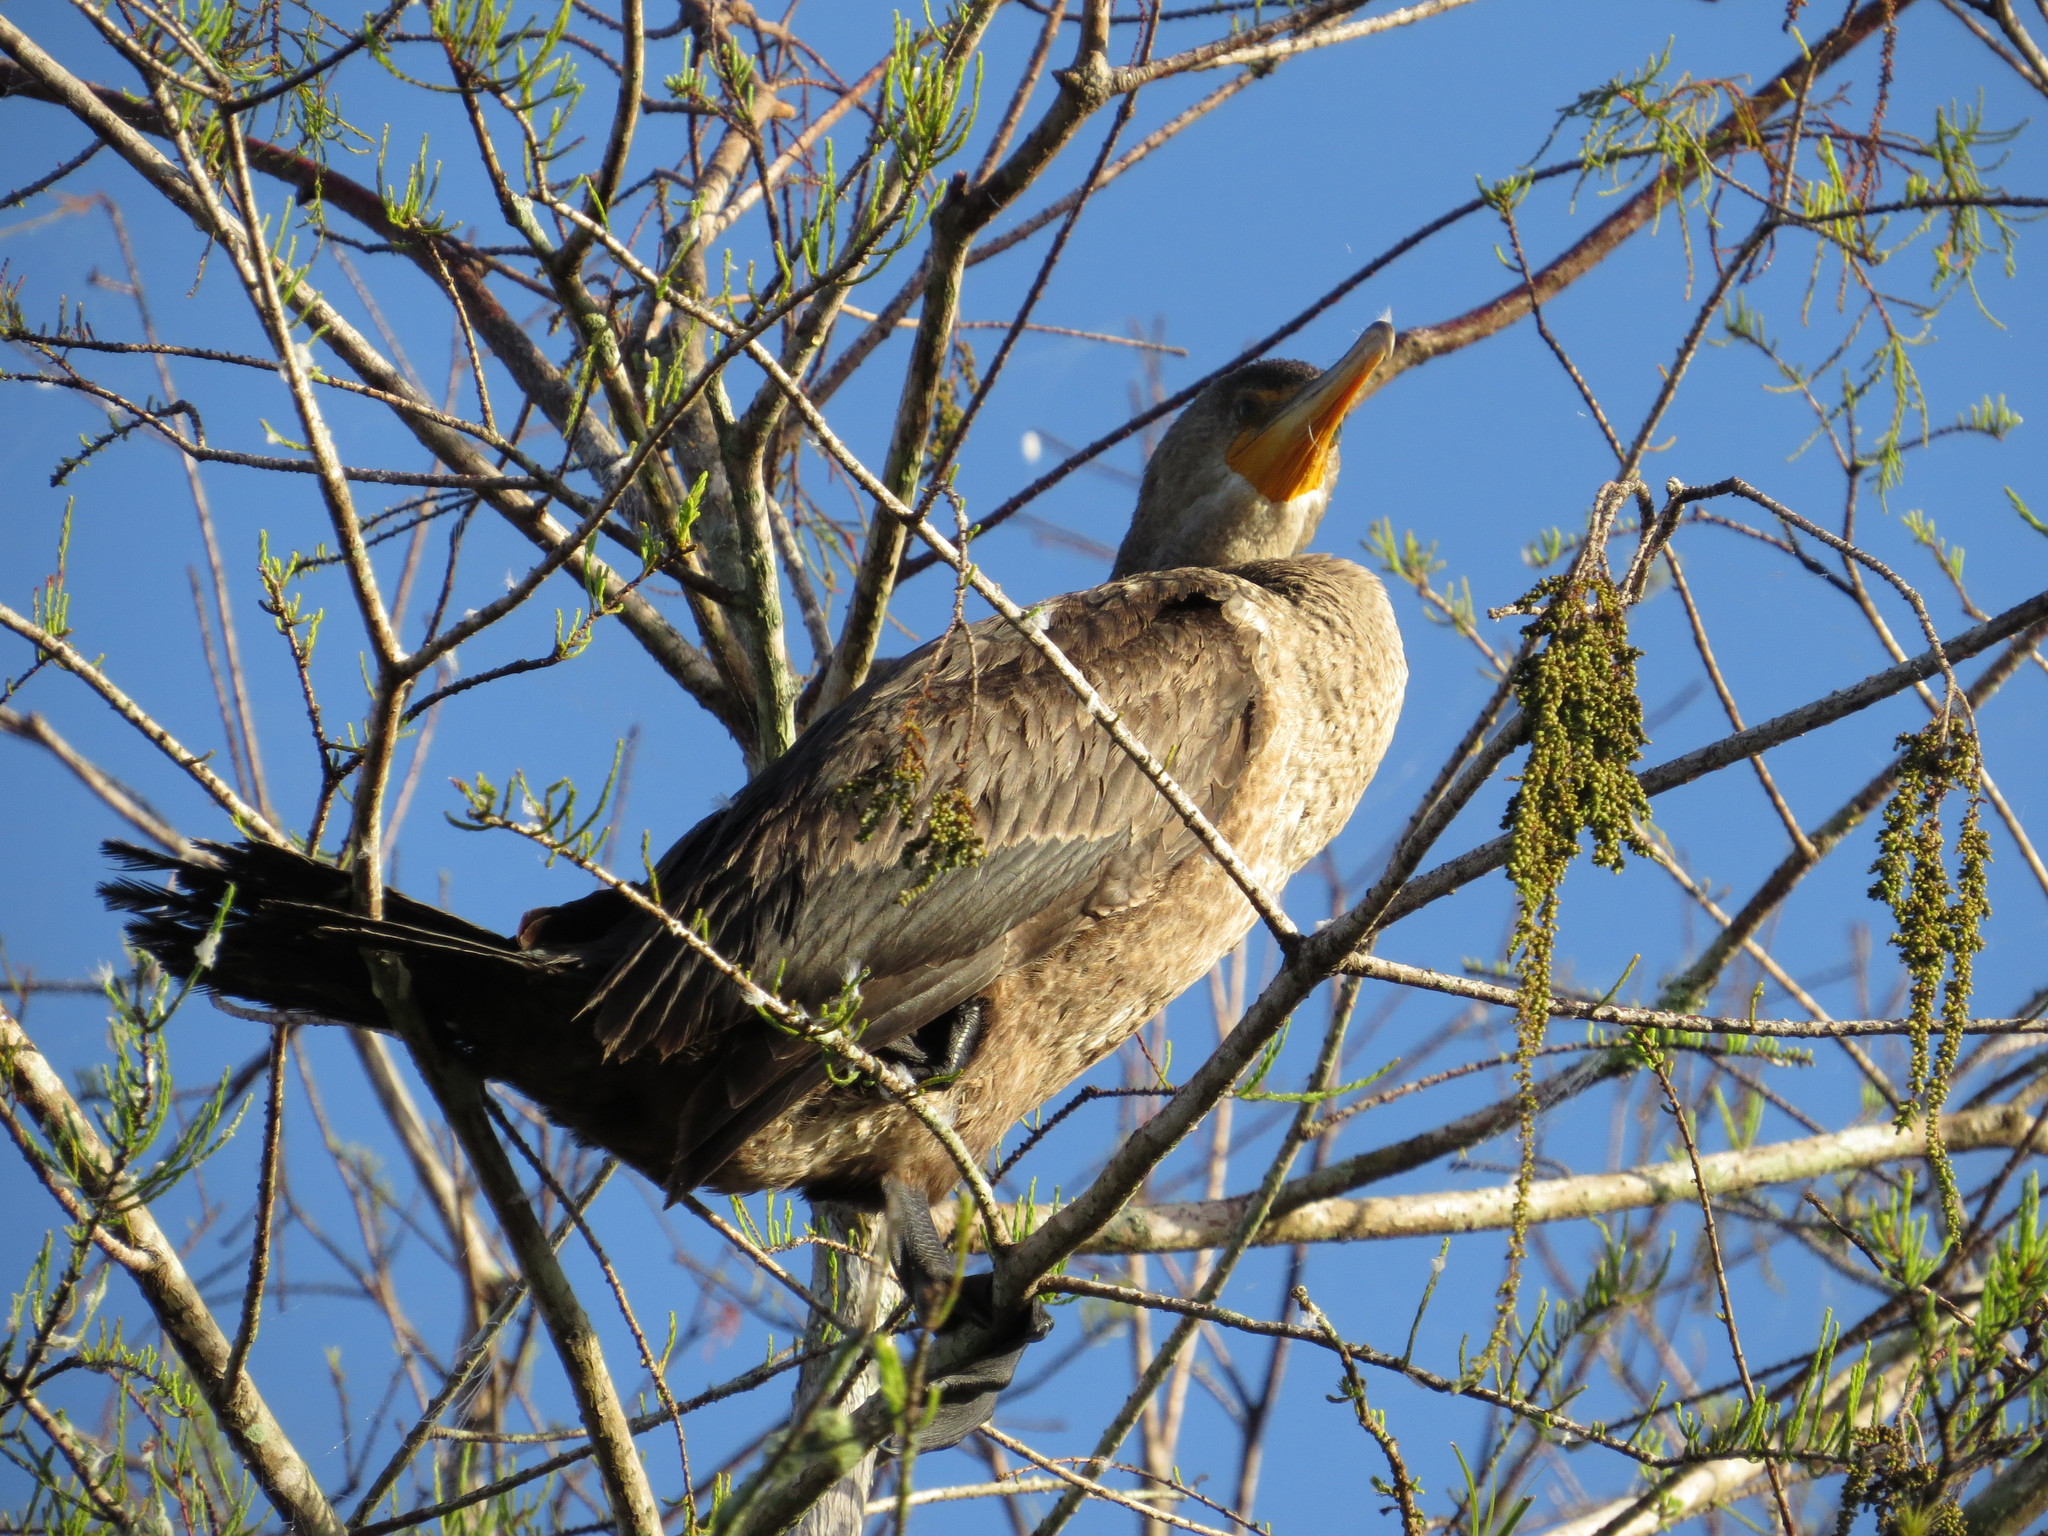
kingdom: Animalia
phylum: Chordata
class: Aves
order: Suliformes
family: Phalacrocoracidae
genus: Phalacrocorax
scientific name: Phalacrocorax auritus
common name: Double-crested cormorant
